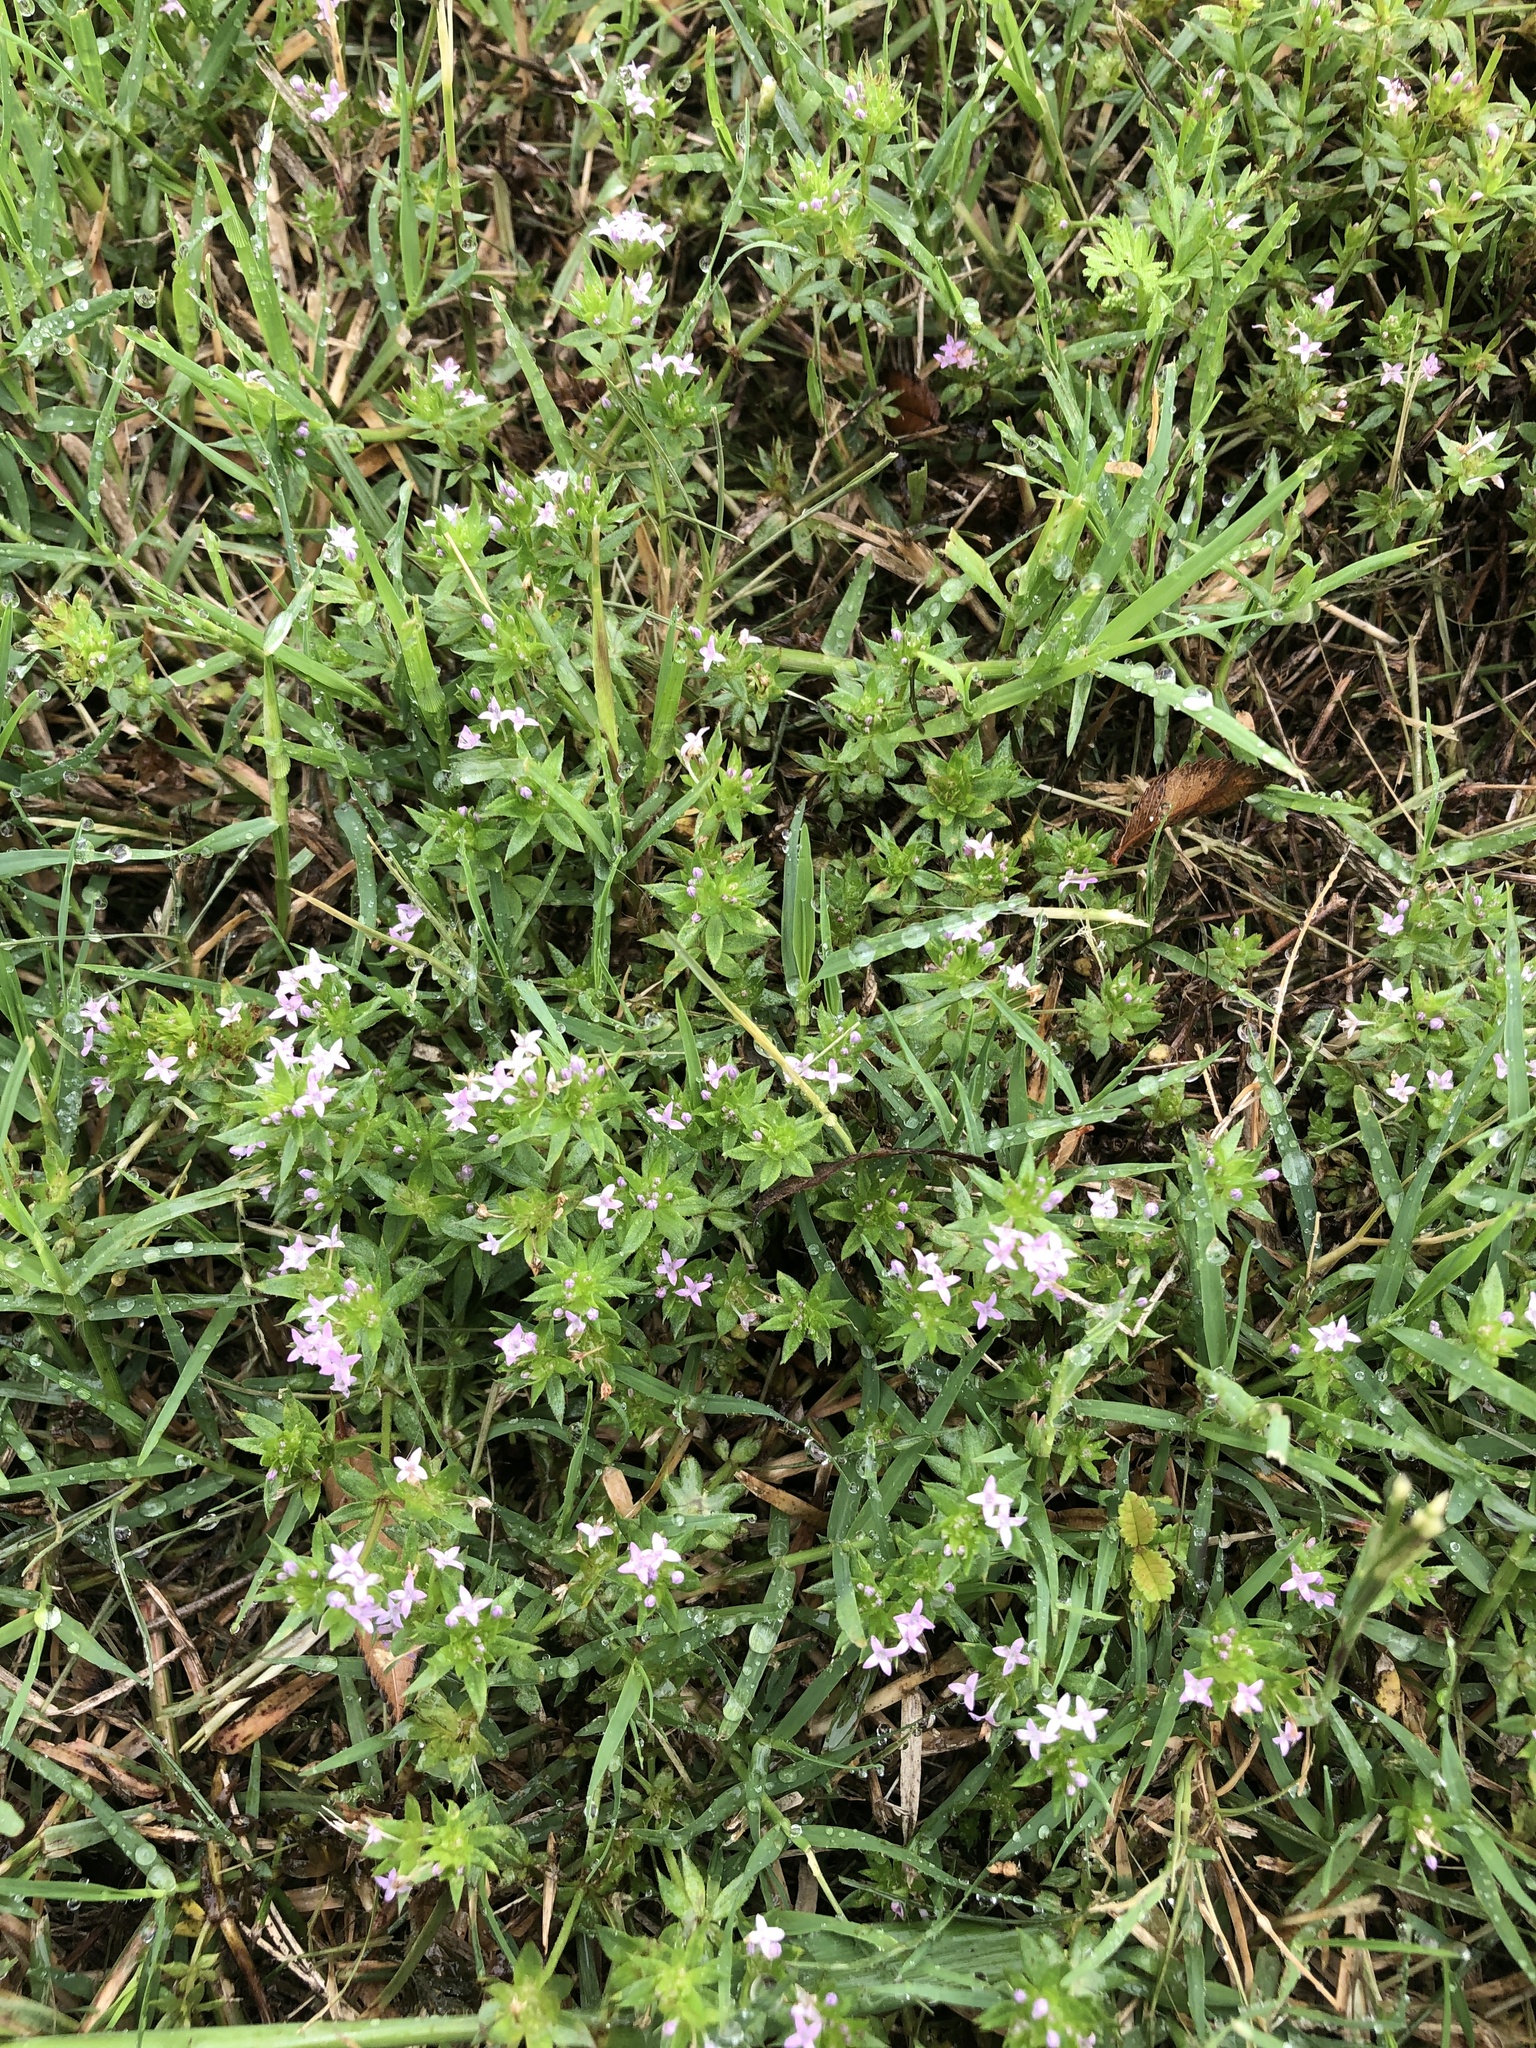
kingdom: Plantae
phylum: Tracheophyta
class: Magnoliopsida
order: Gentianales
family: Rubiaceae
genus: Sherardia
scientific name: Sherardia arvensis
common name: Field madder
